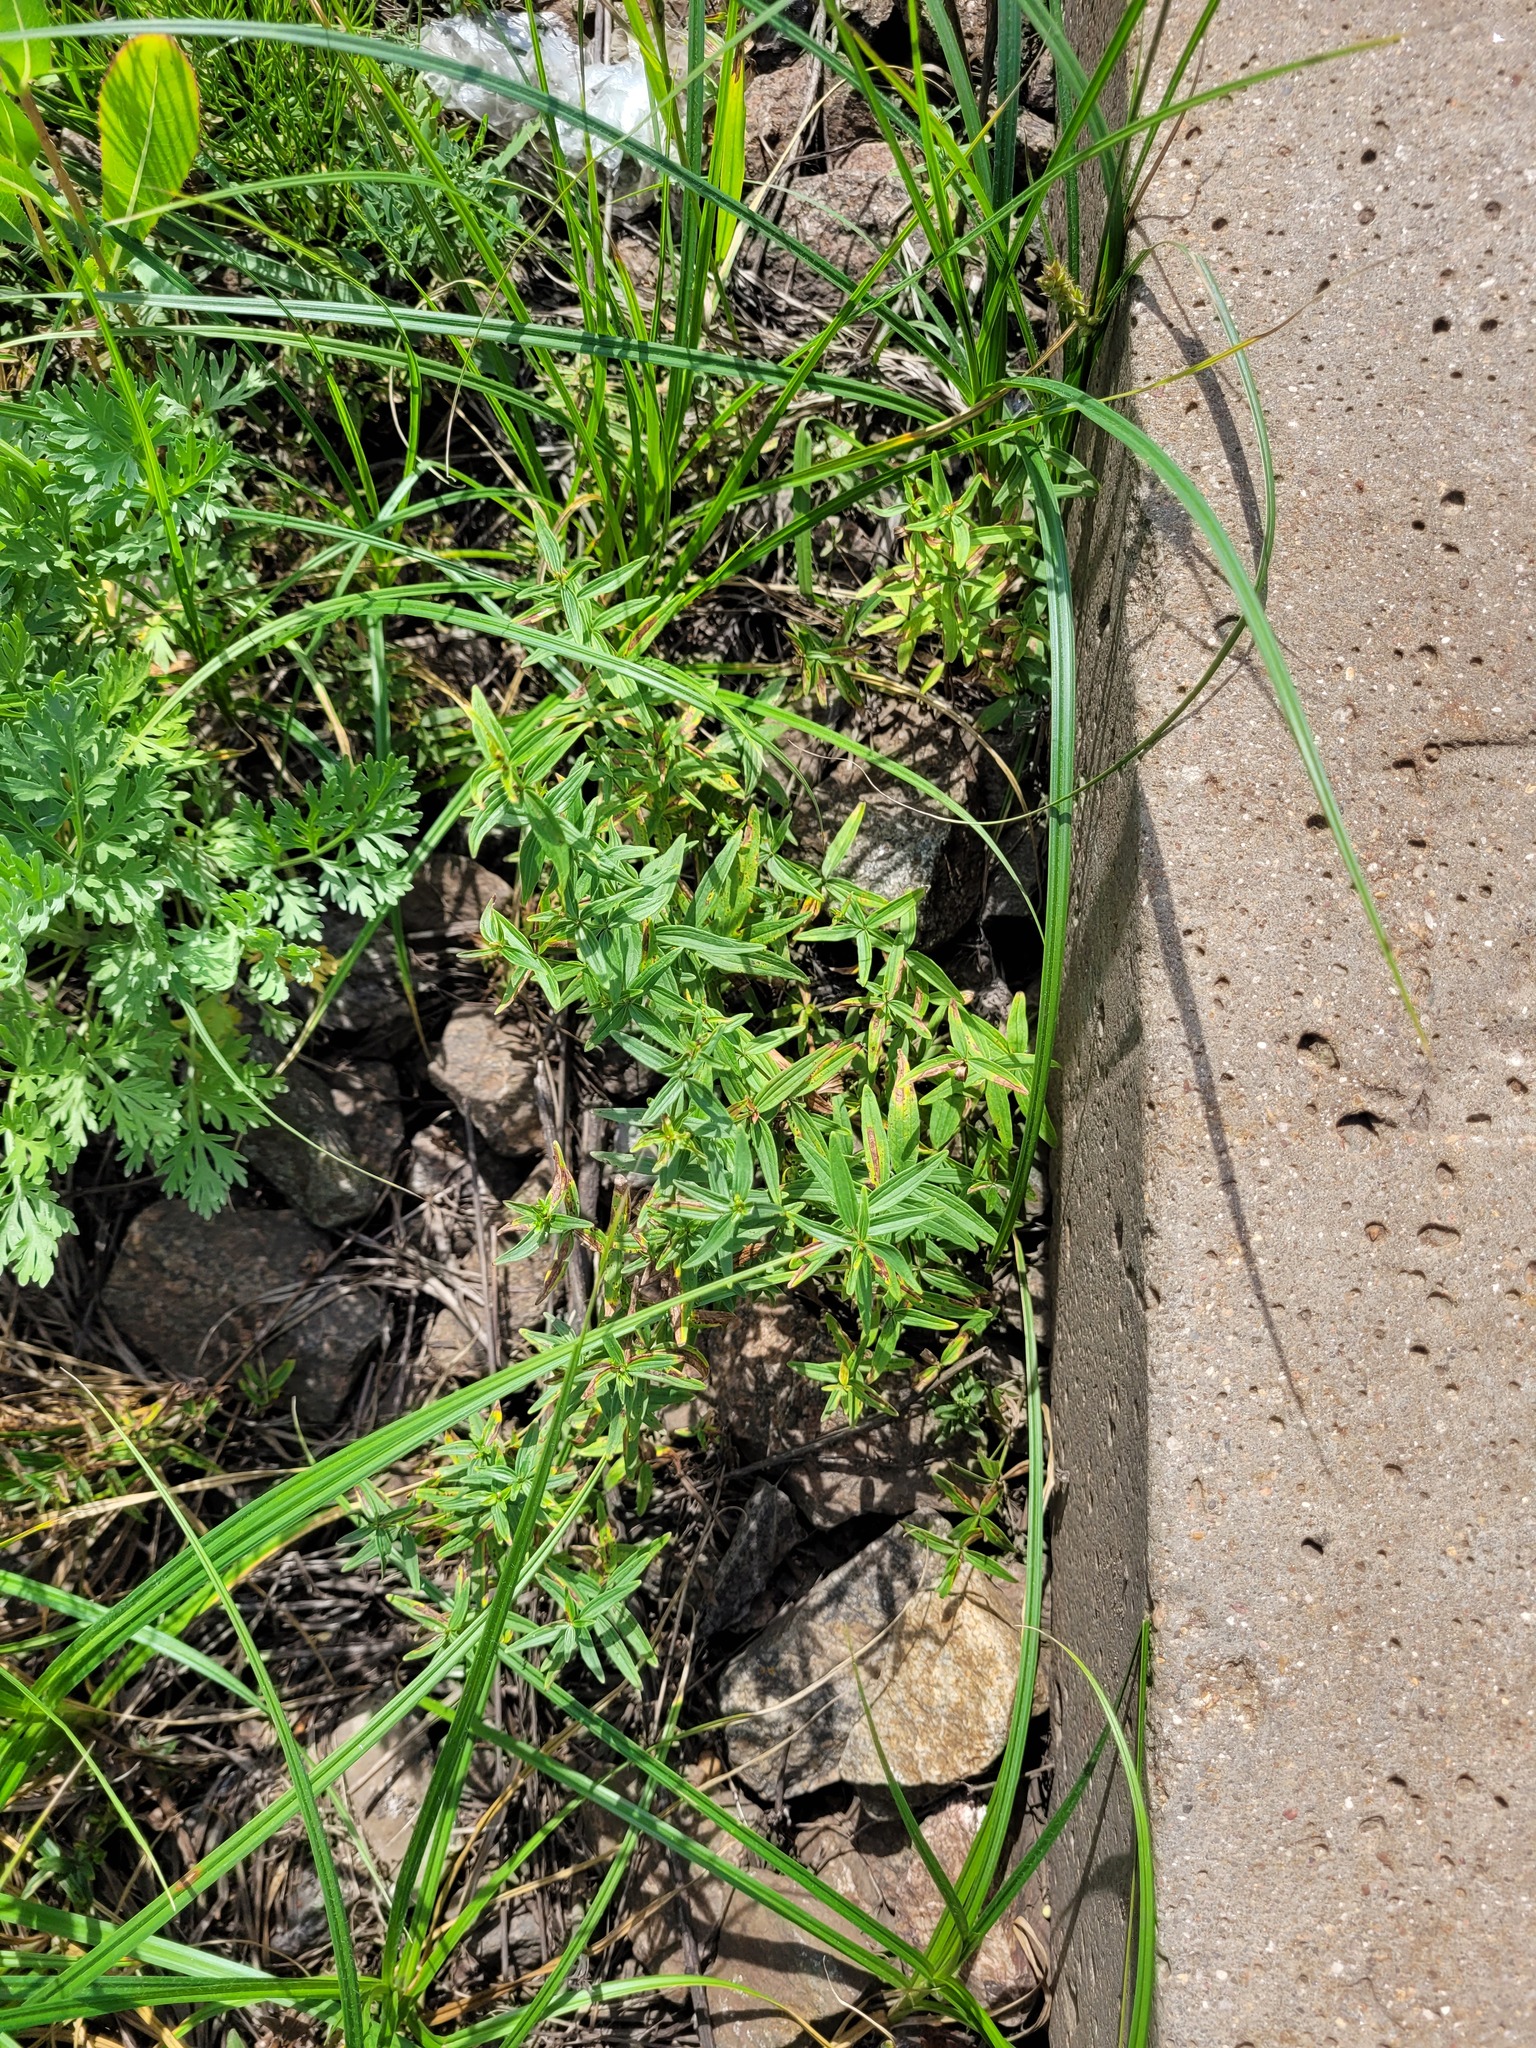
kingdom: Plantae
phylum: Tracheophyta
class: Magnoliopsida
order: Gentianales
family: Rubiaceae
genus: Galium
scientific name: Galium boreale
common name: Northern bedstraw
